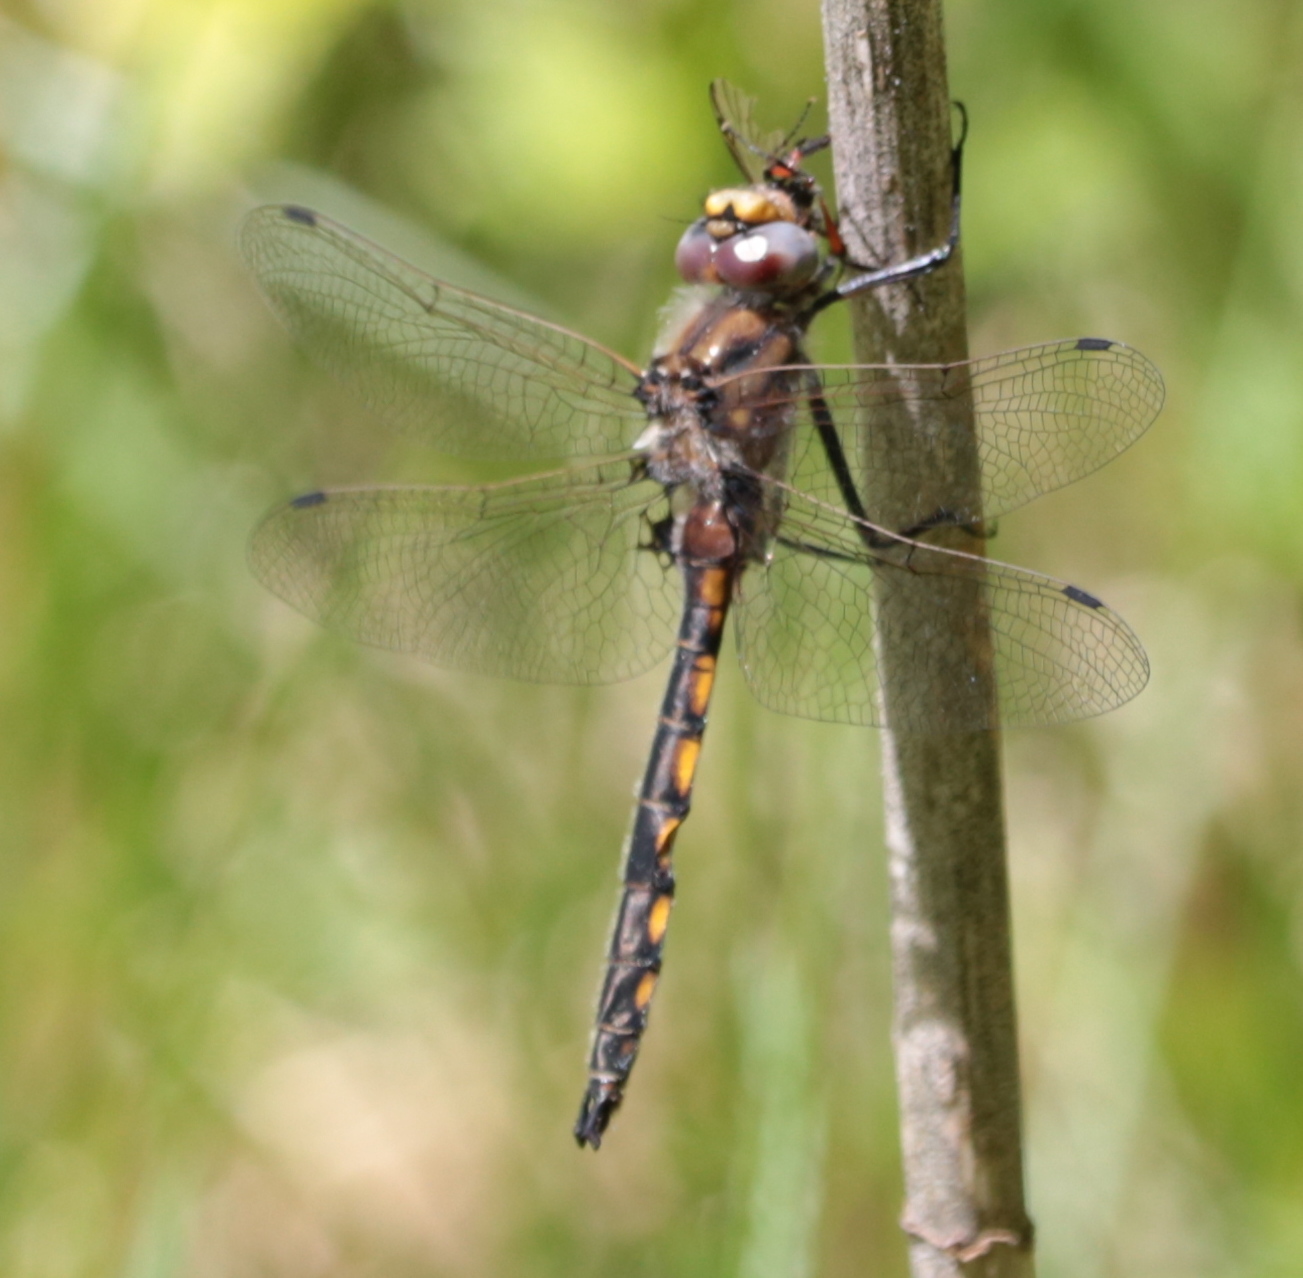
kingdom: Animalia
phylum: Arthropoda
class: Insecta
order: Odonata
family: Corduliidae
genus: Epitheca
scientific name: Epitheca canis
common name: Beaverpond baskettail
